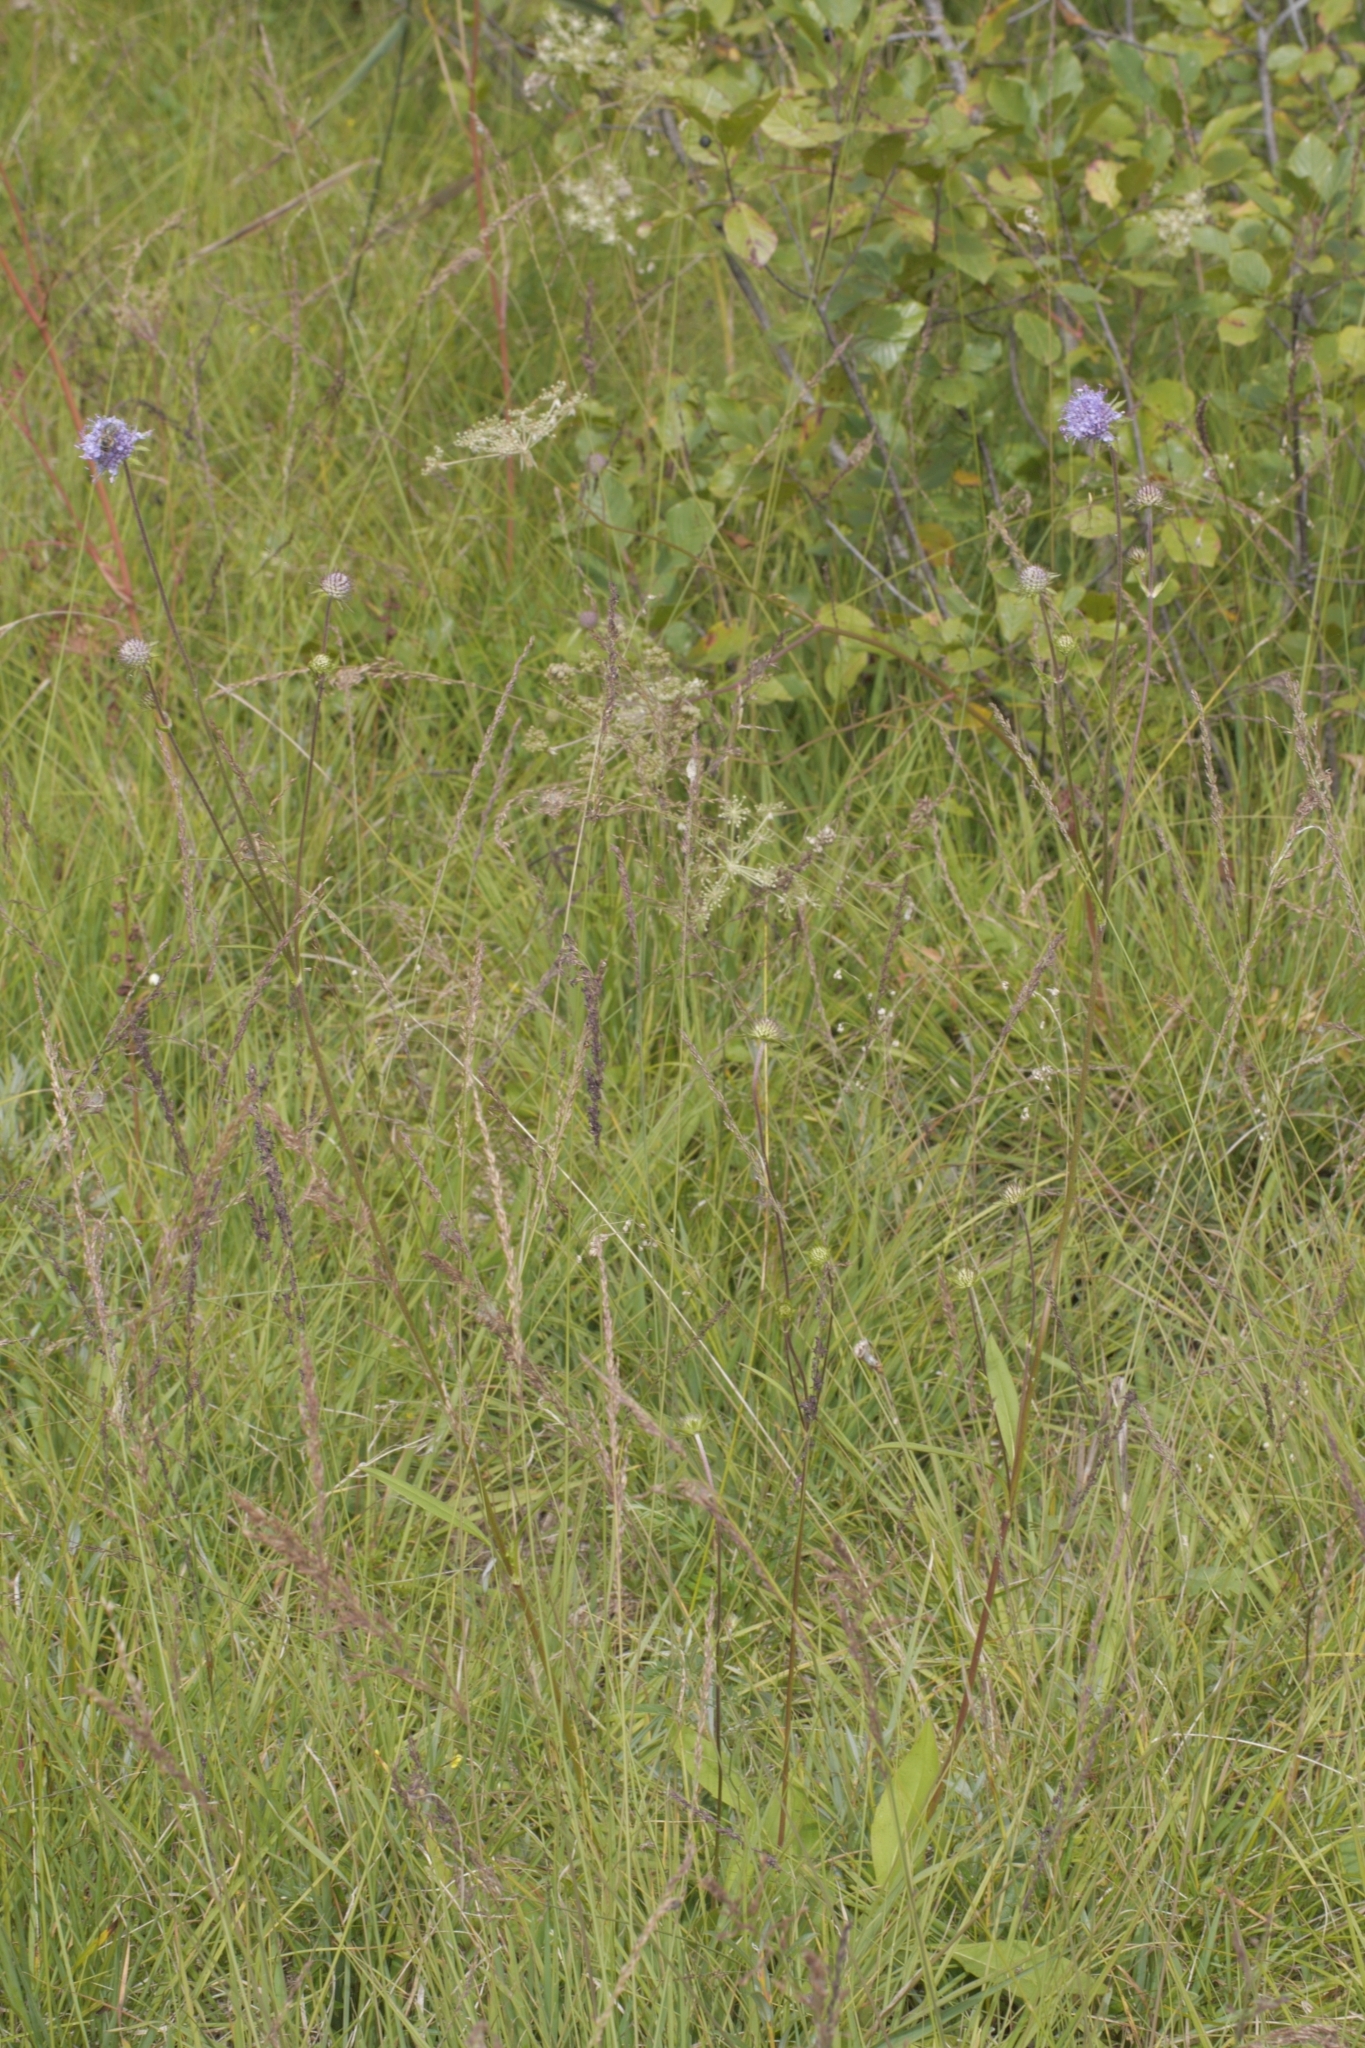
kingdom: Plantae
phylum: Tracheophyta
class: Magnoliopsida
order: Dipsacales
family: Caprifoliaceae
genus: Succisa
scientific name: Succisa pratensis
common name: Devil's-bit
